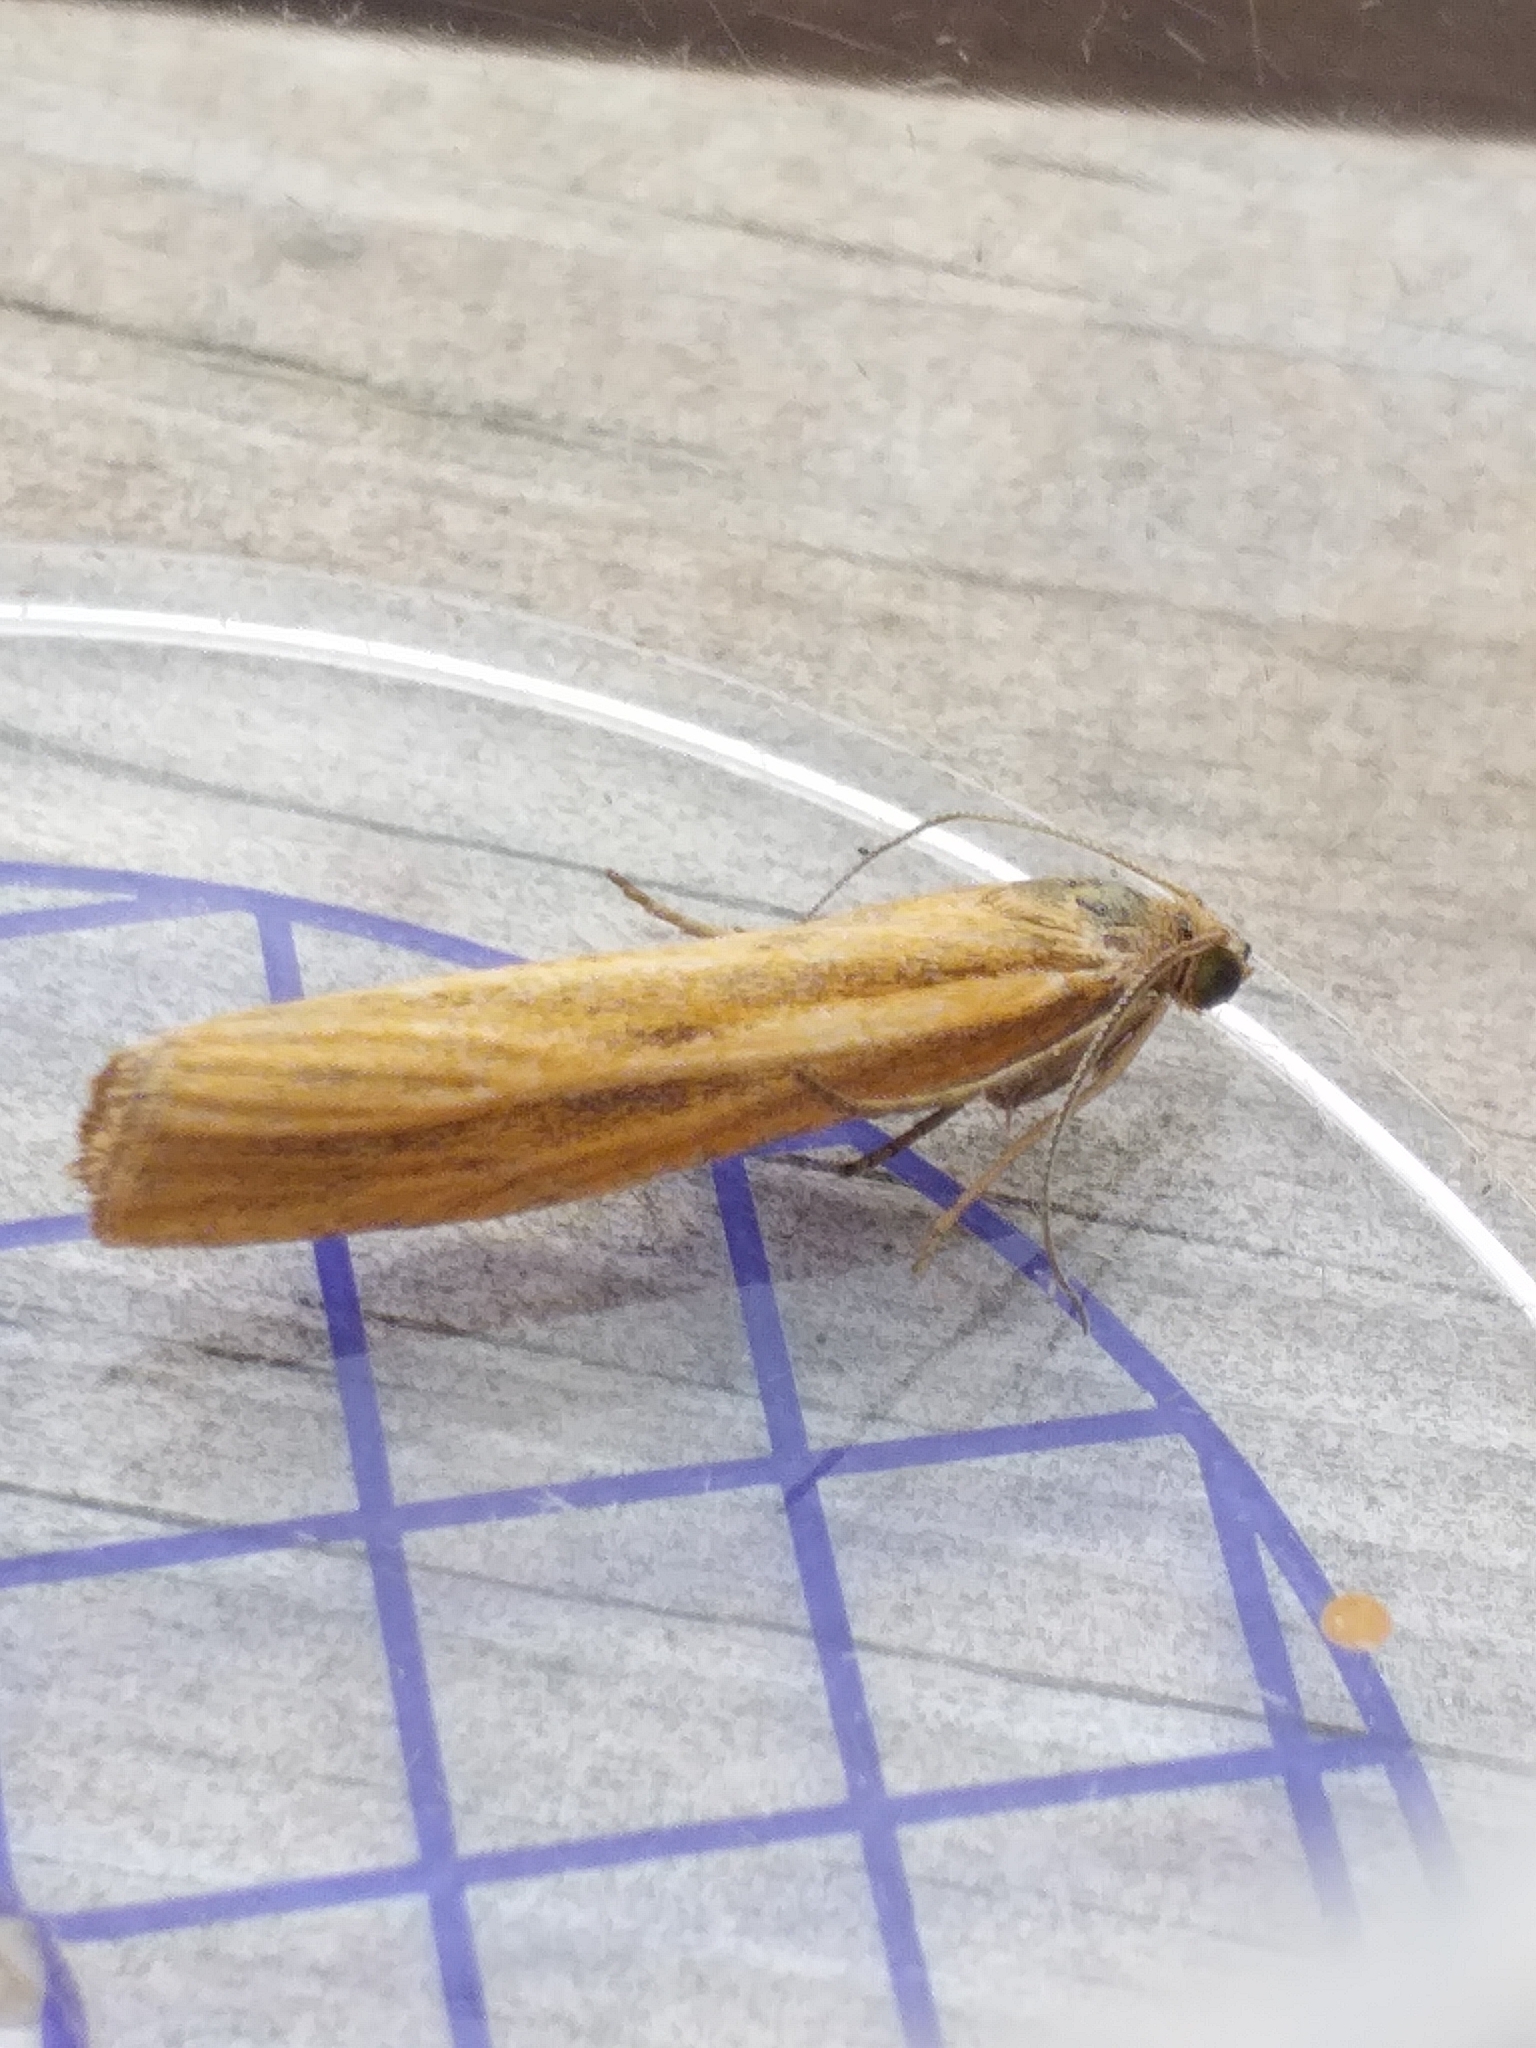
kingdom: Animalia
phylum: Arthropoda
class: Insecta
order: Lepidoptera
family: Crambidae
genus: Agriphila
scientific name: Agriphila tristellus
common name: Common grass-veneer
